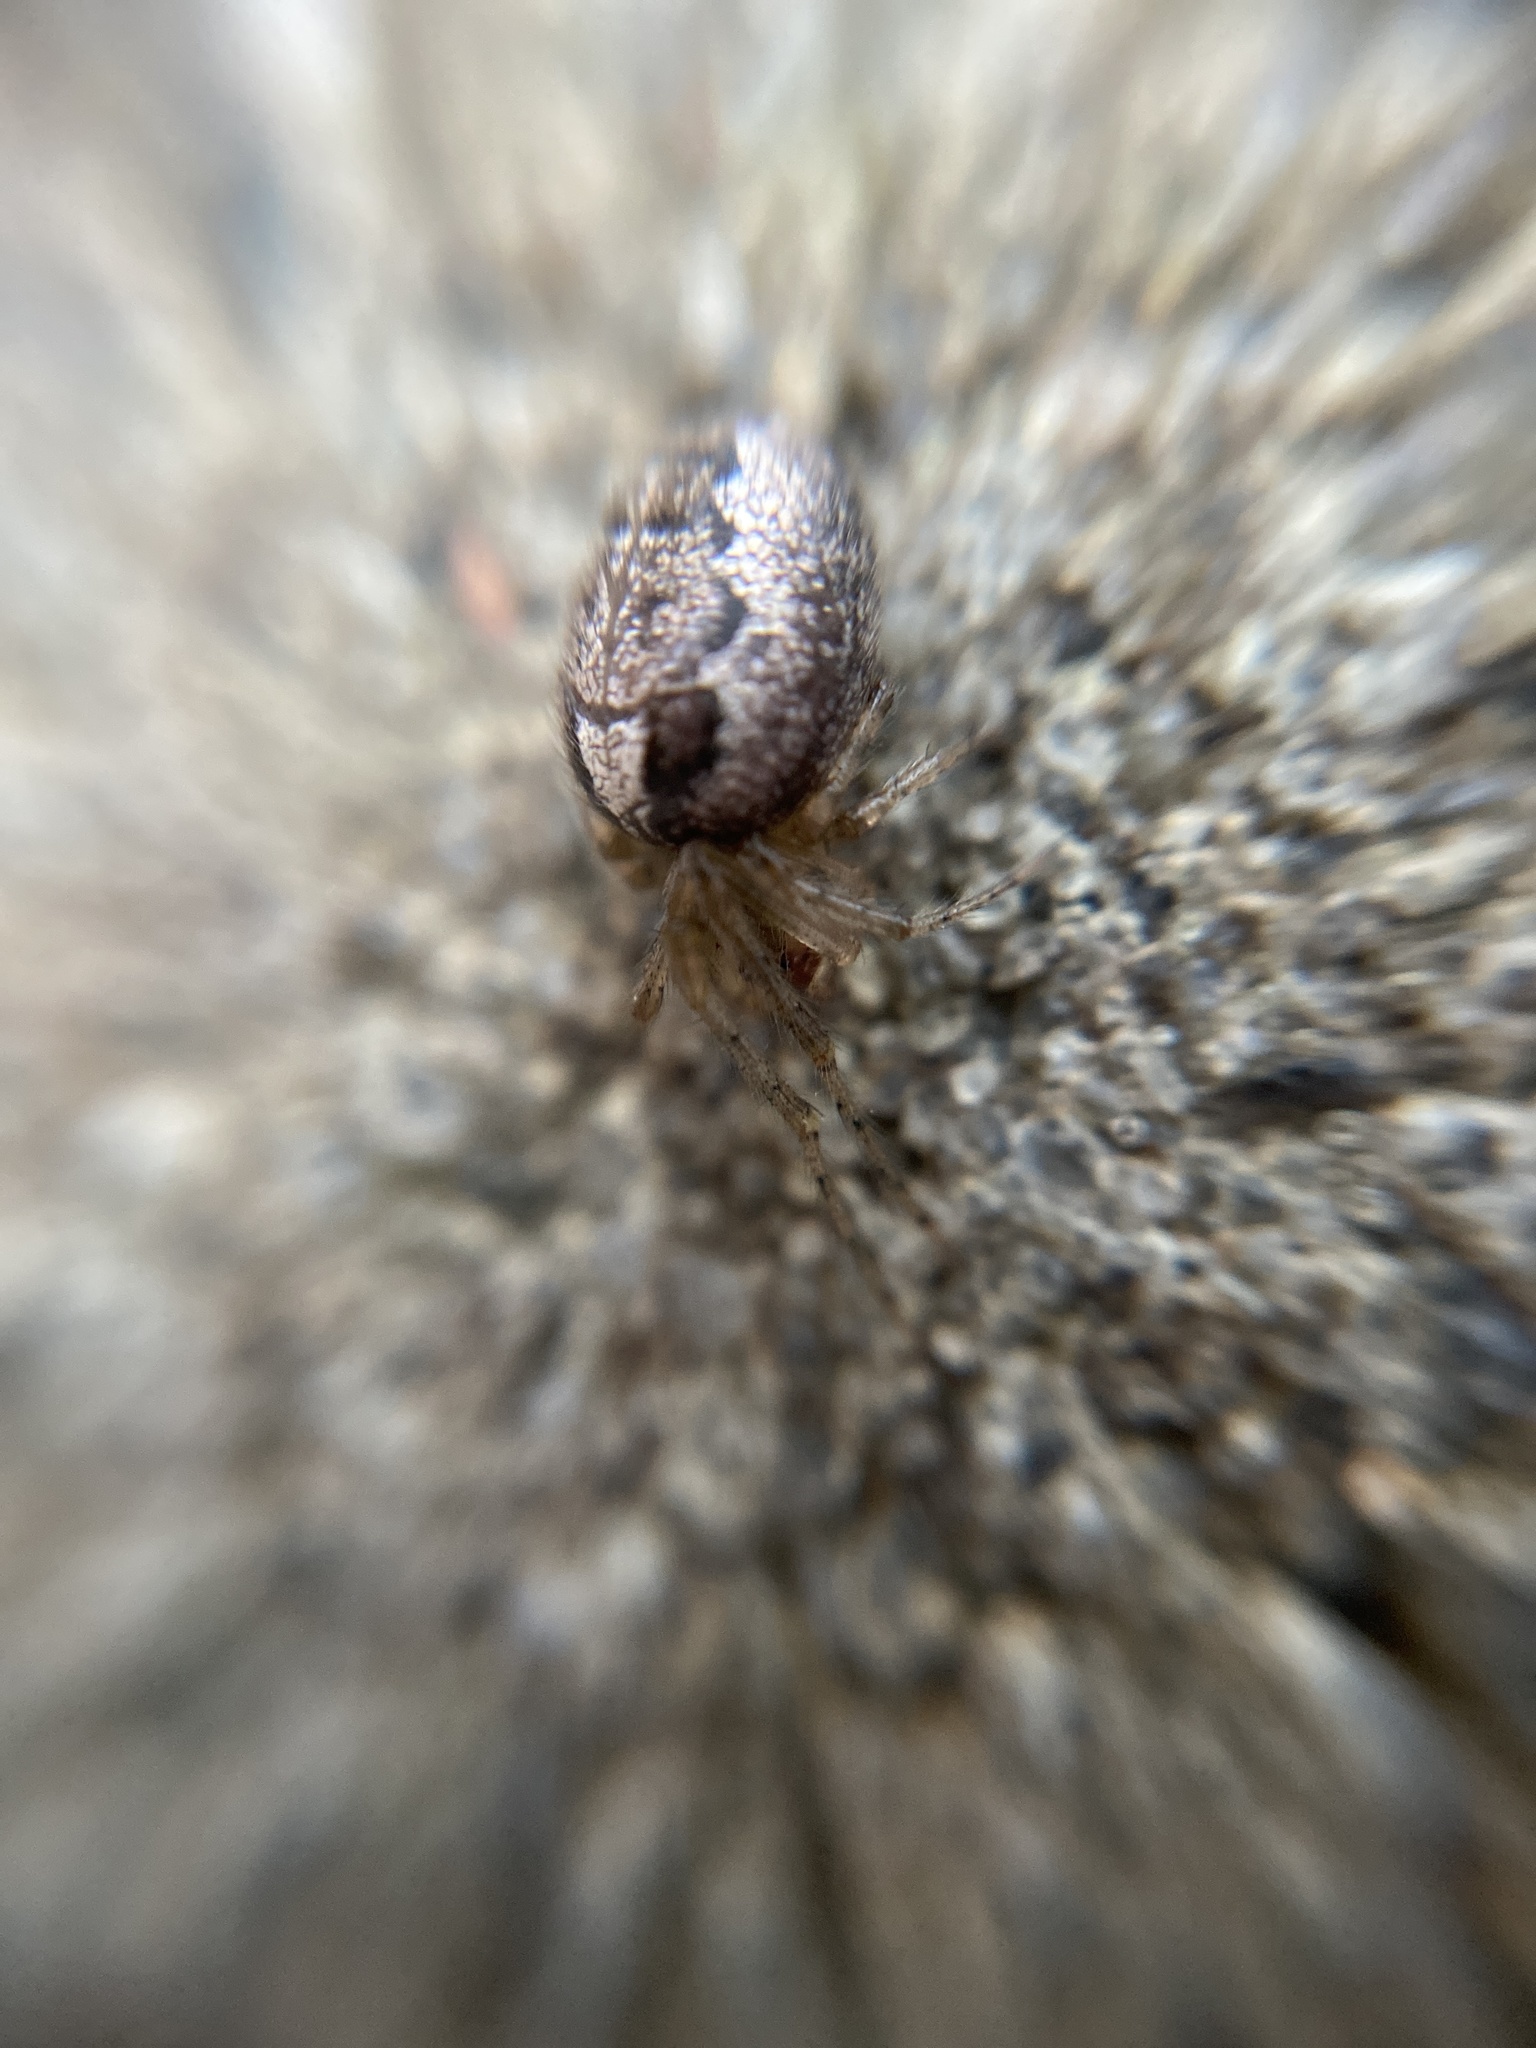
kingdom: Animalia
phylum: Arthropoda
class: Arachnida
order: Araneae
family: Araneidae
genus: Zygiella
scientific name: Zygiella x-notata
